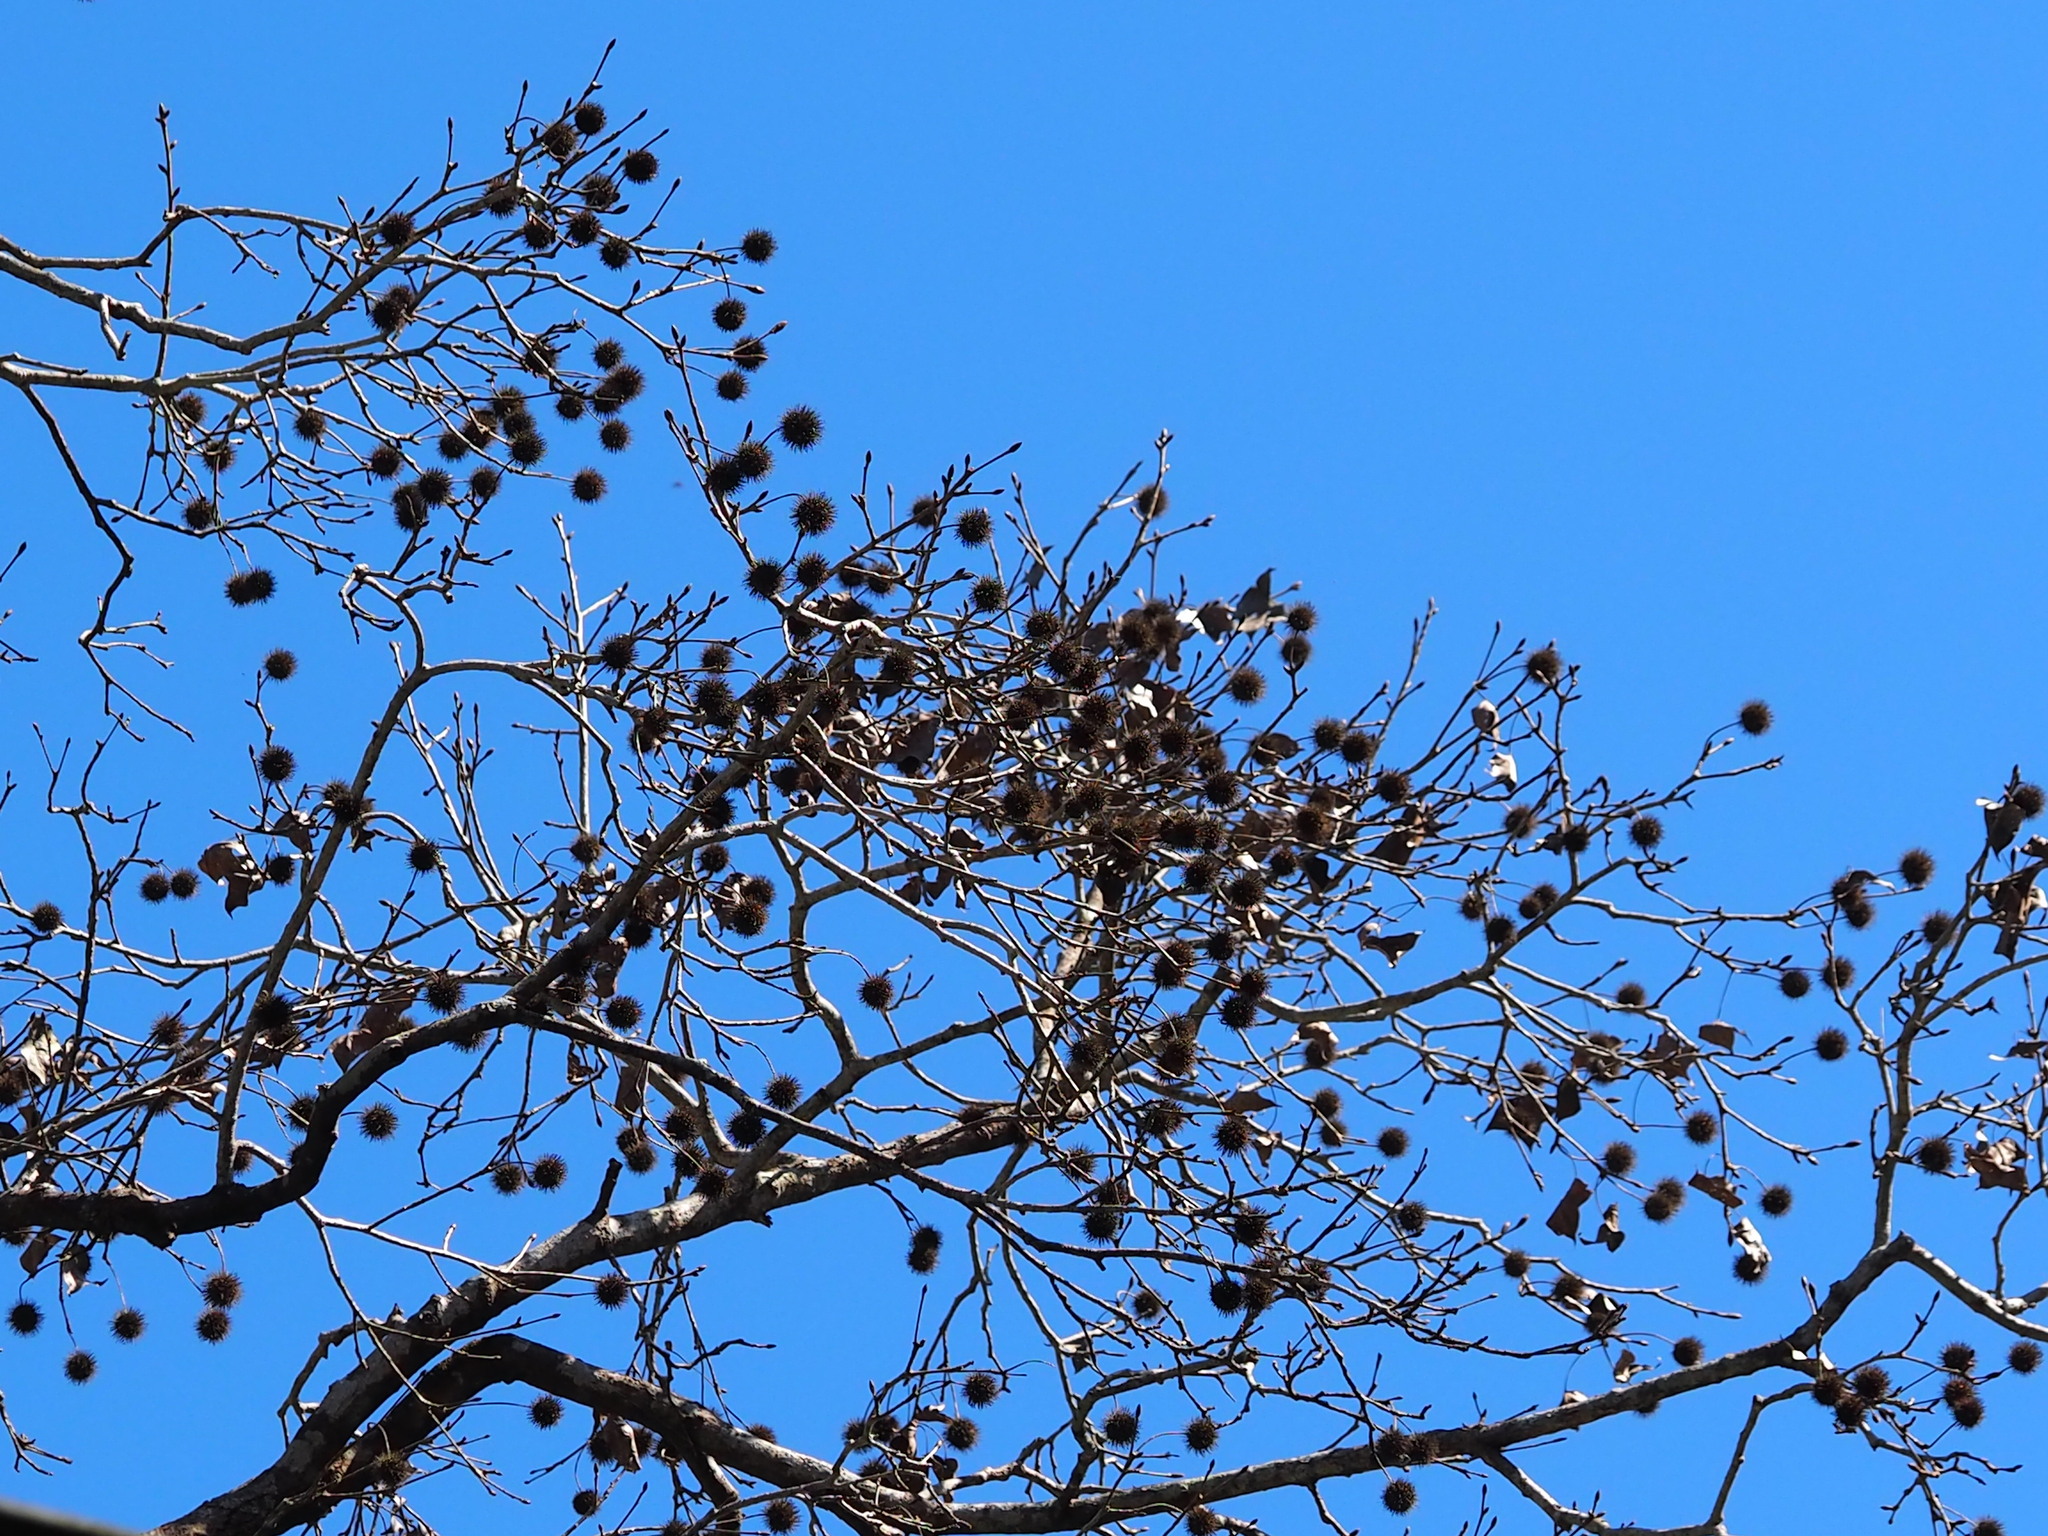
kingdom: Plantae
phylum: Tracheophyta
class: Magnoliopsida
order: Saxifragales
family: Altingiaceae
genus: Liquidambar
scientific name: Liquidambar formosana
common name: Chinese sweet gum
